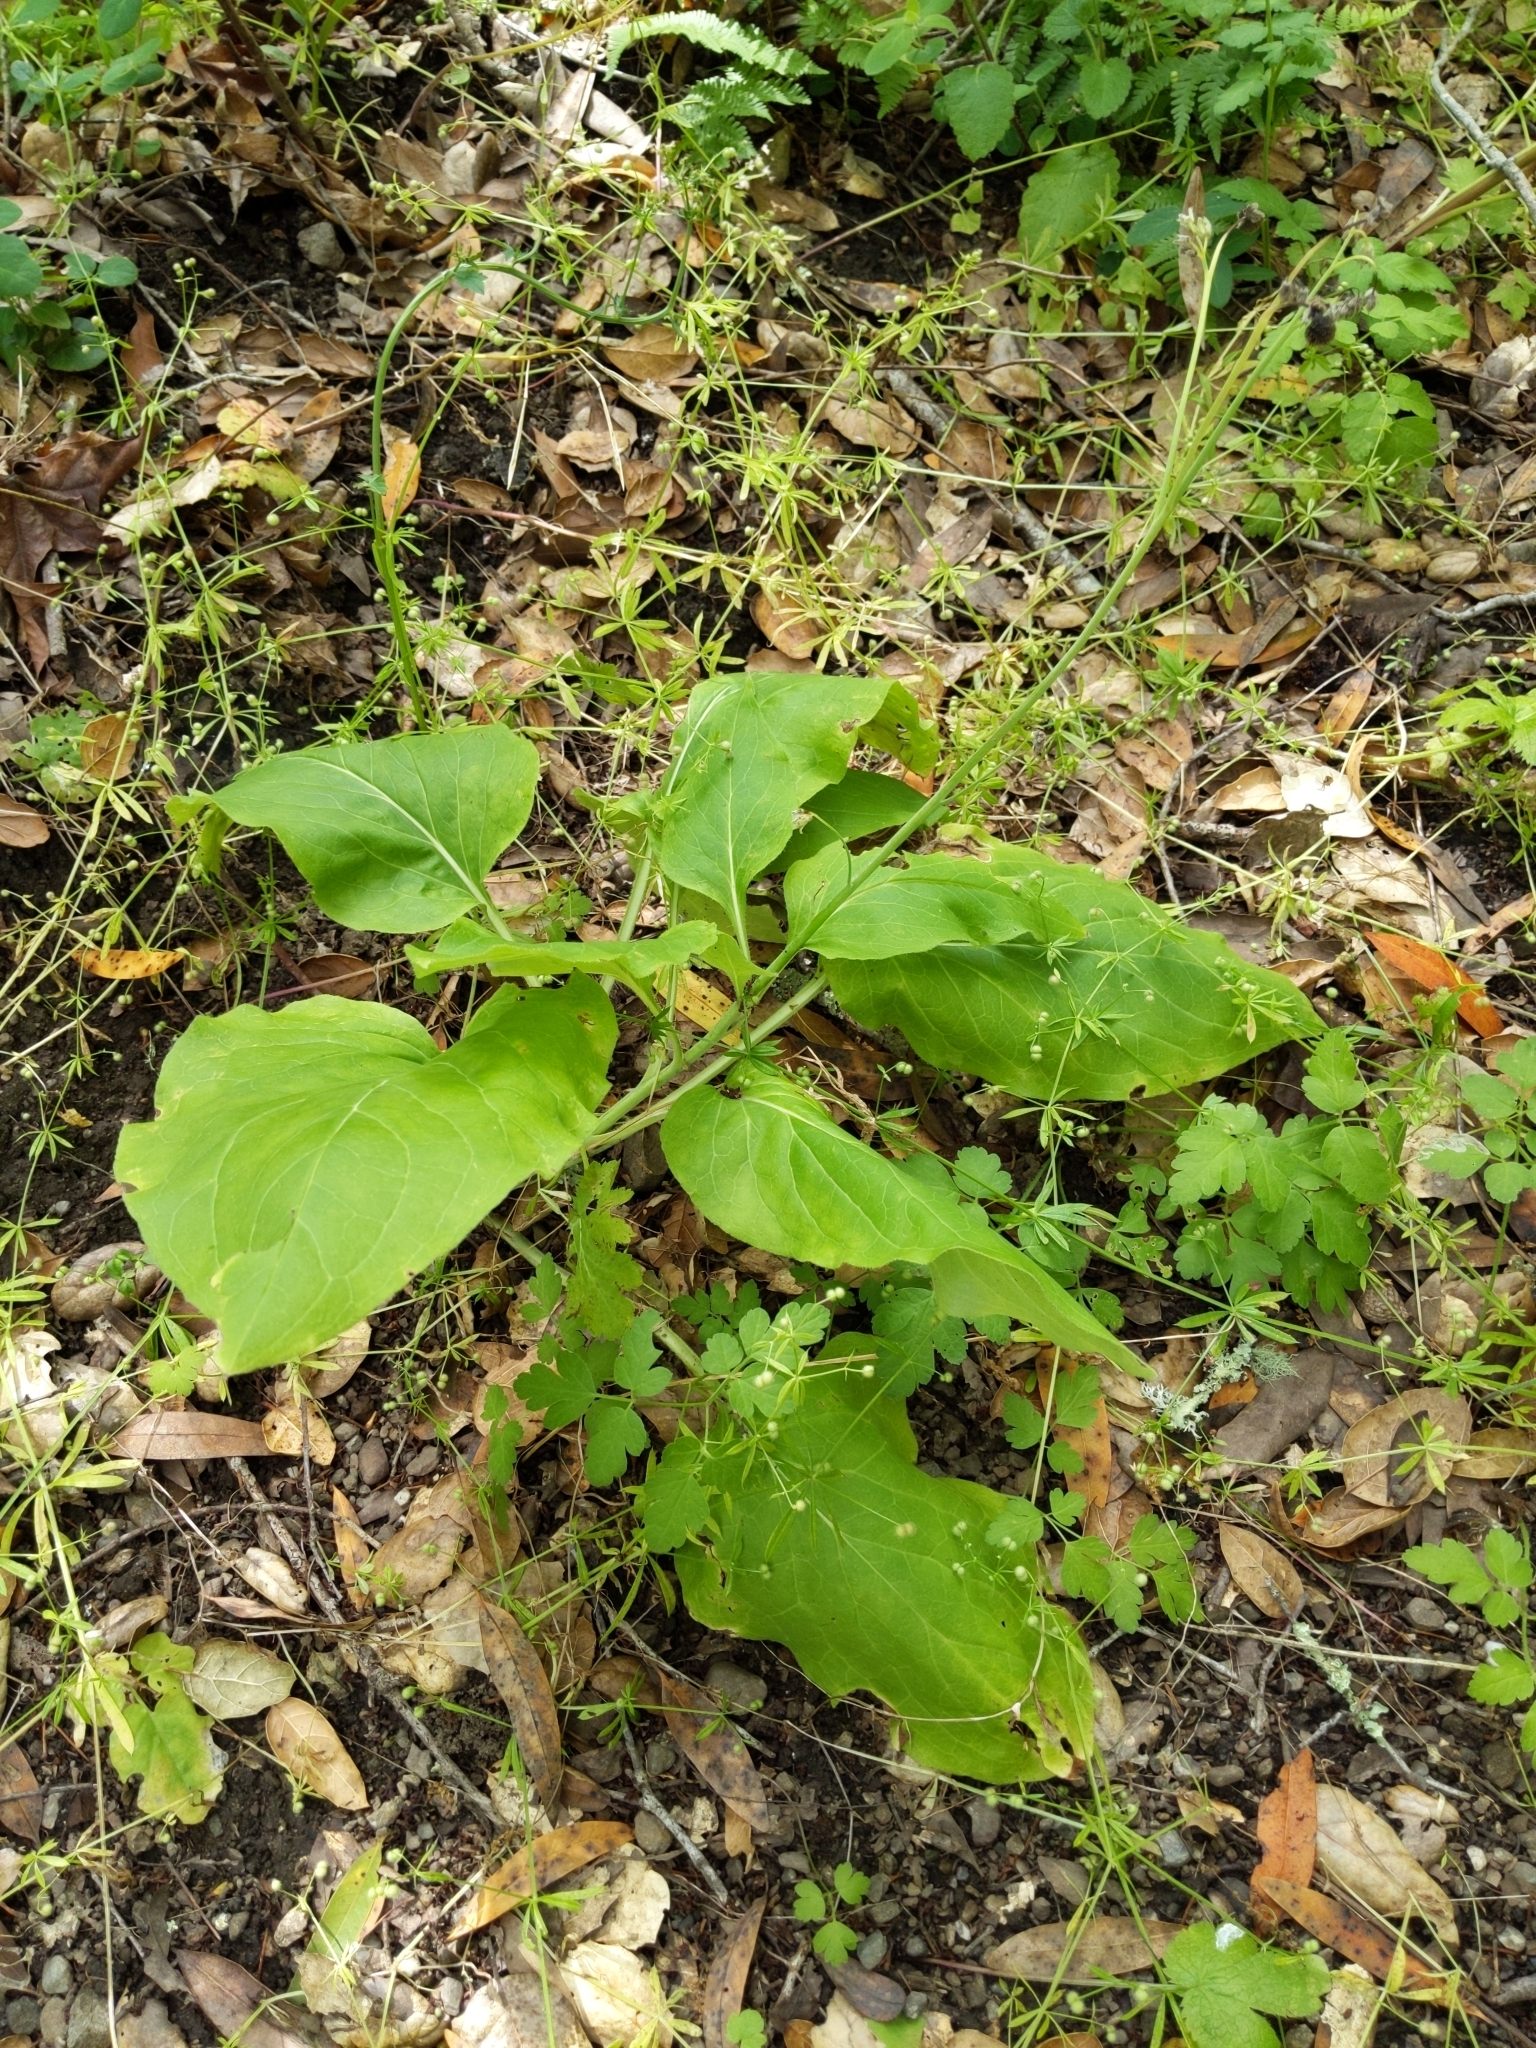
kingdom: Plantae
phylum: Tracheophyta
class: Magnoliopsida
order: Boraginales
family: Boraginaceae
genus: Adelinia
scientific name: Adelinia grande
